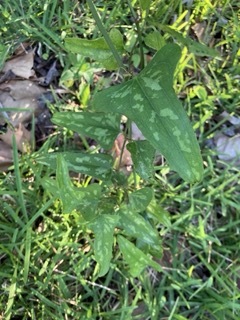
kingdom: Plantae
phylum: Tracheophyta
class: Liliopsida
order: Liliales
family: Smilacaceae
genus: Smilax
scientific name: Smilax bona-nox
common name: Catbrier
